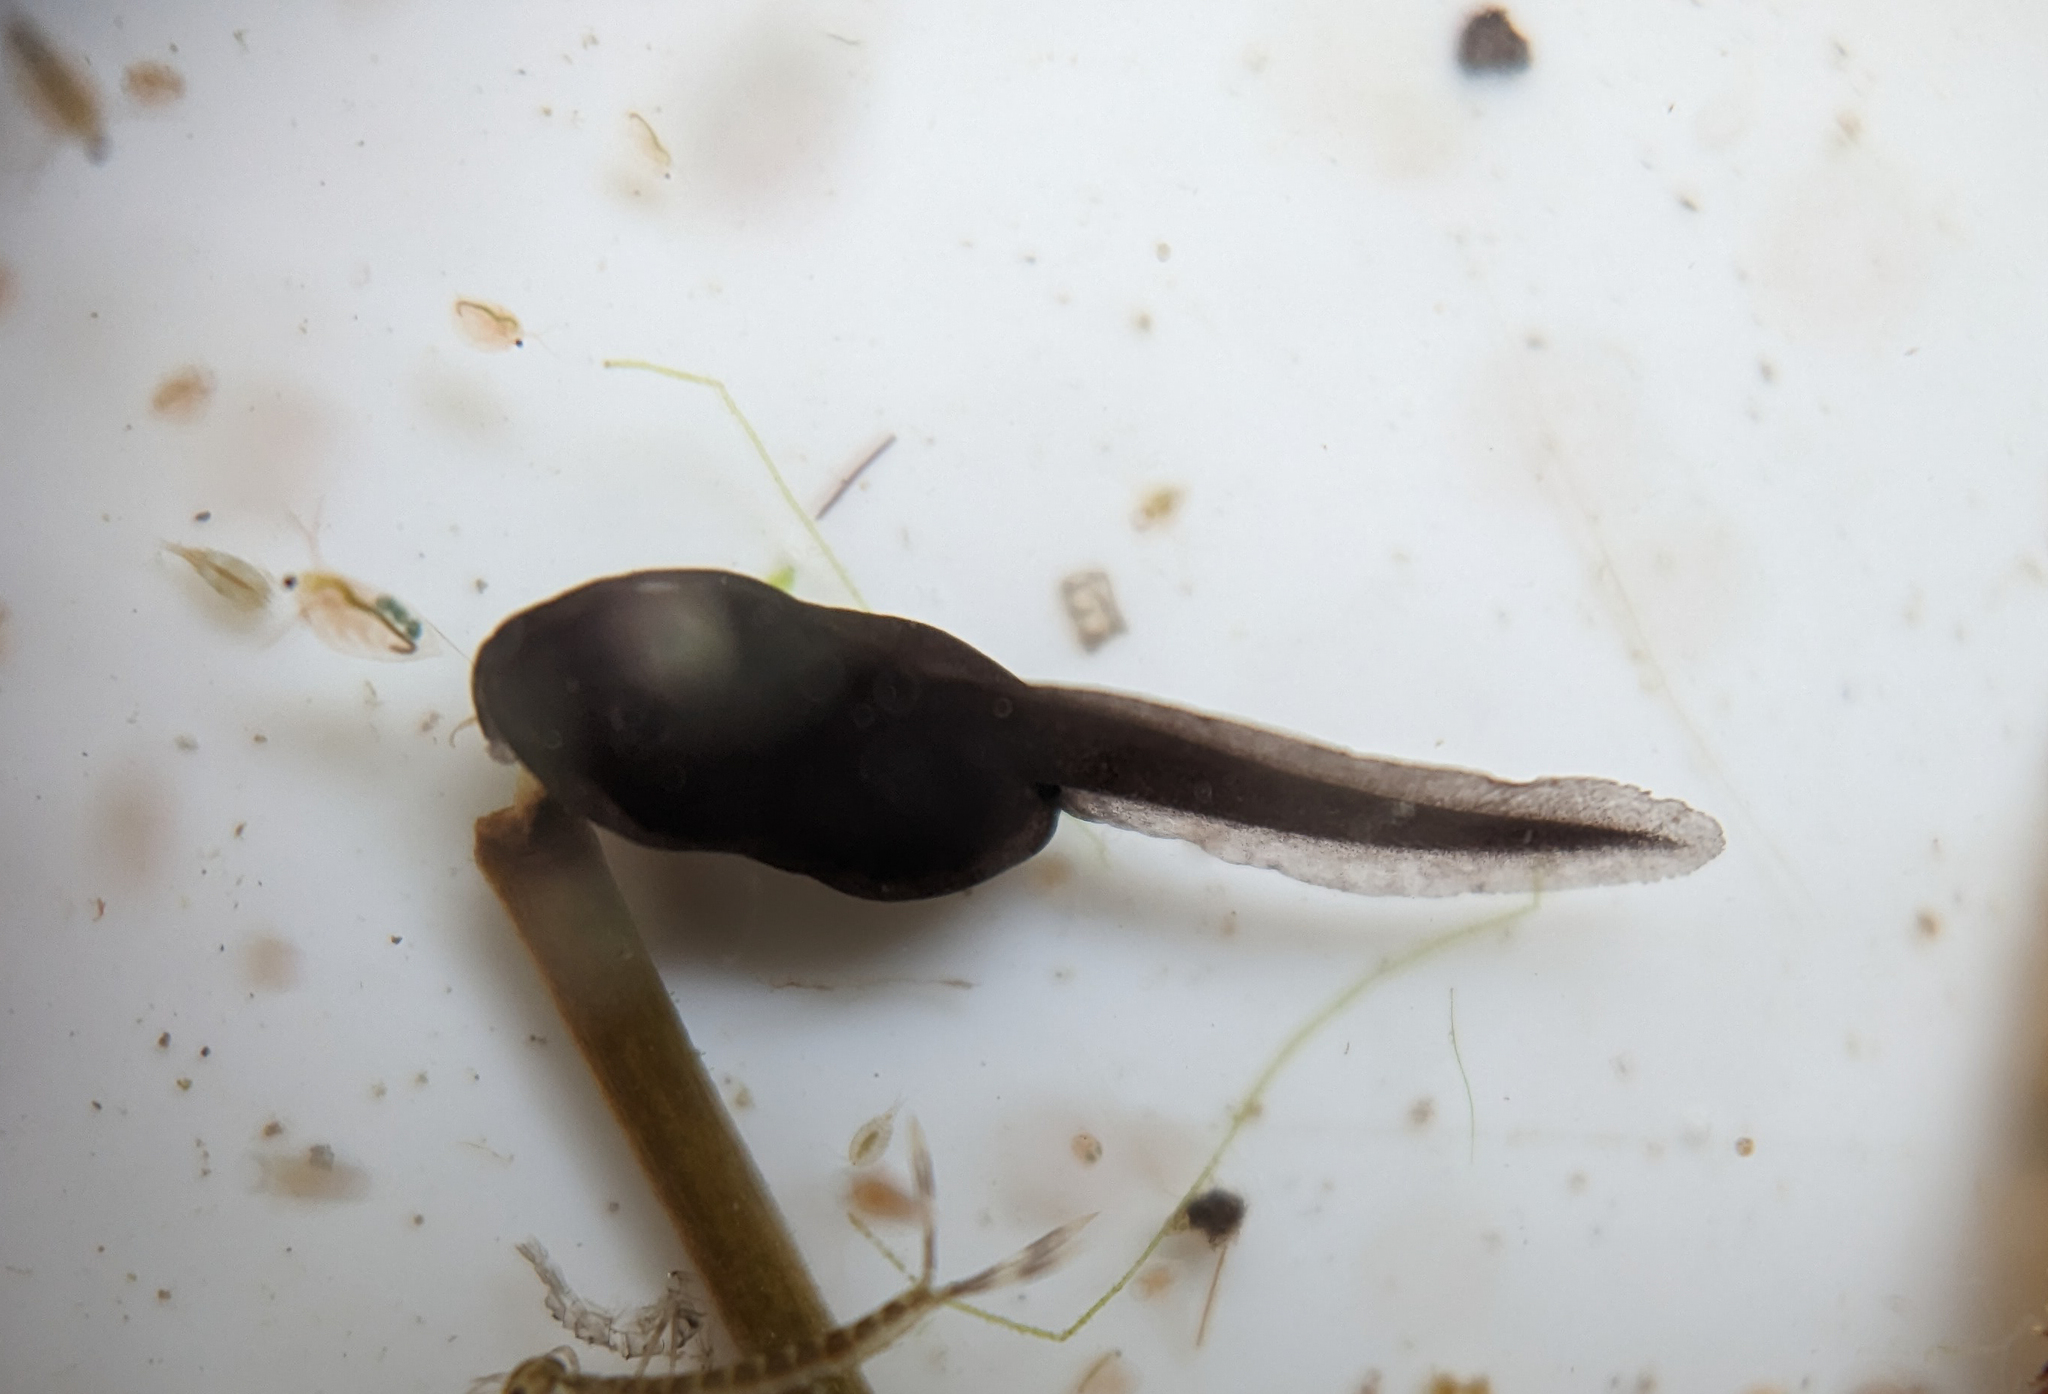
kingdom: Animalia
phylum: Chordata
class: Amphibia
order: Anura
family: Bufonidae
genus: Bufo
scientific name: Bufo bufo
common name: Common toad
